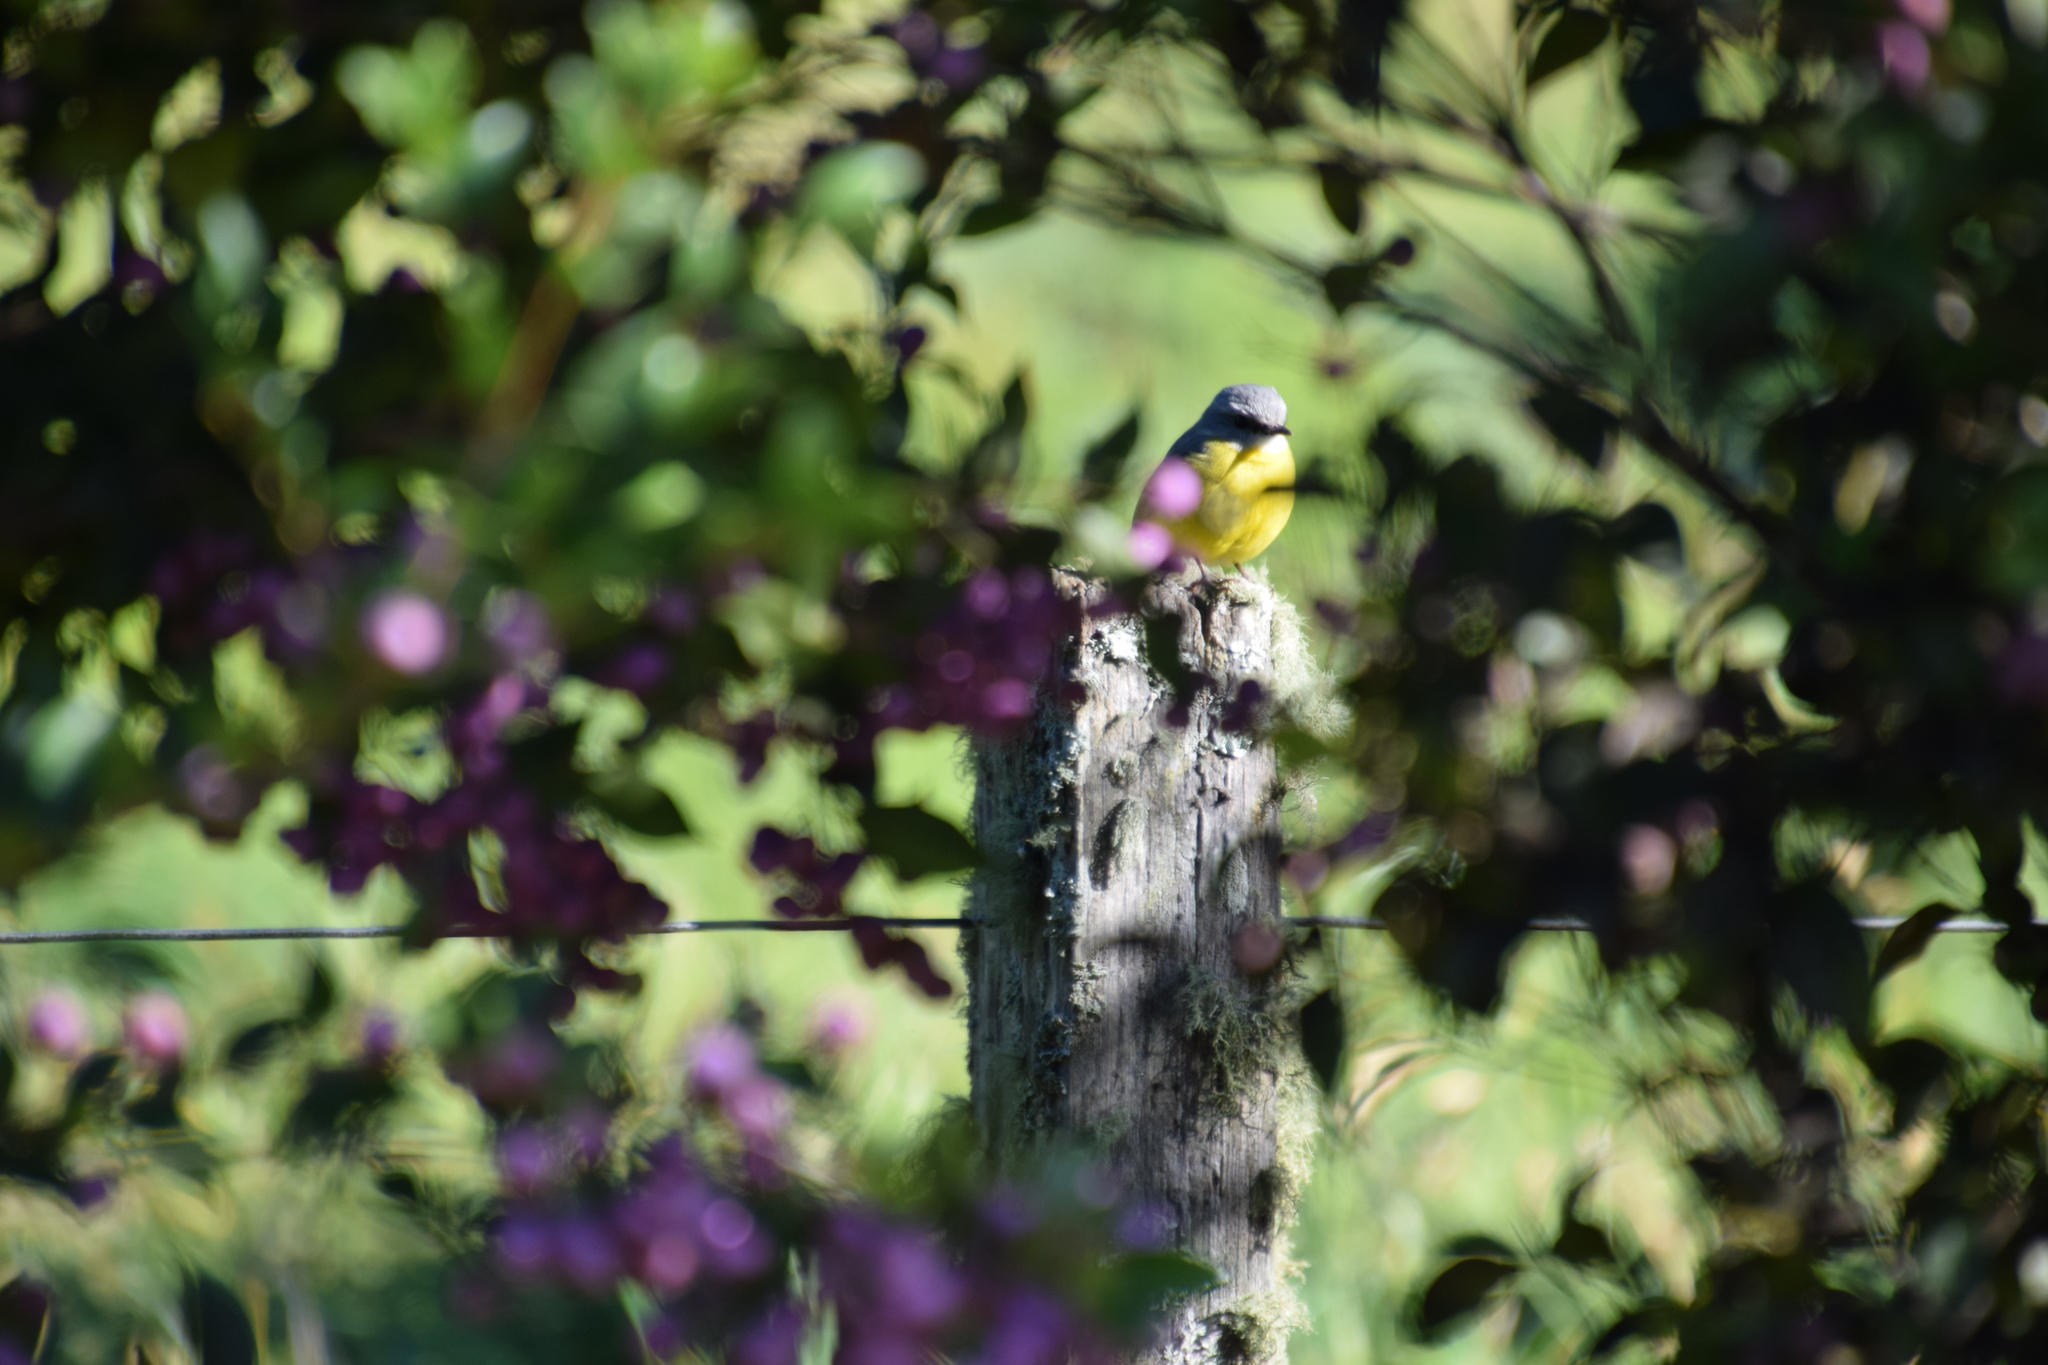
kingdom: Animalia
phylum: Chordata
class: Aves
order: Passeriformes
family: Petroicidae
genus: Eopsaltria
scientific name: Eopsaltria australis
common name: Eastern yellow robin
